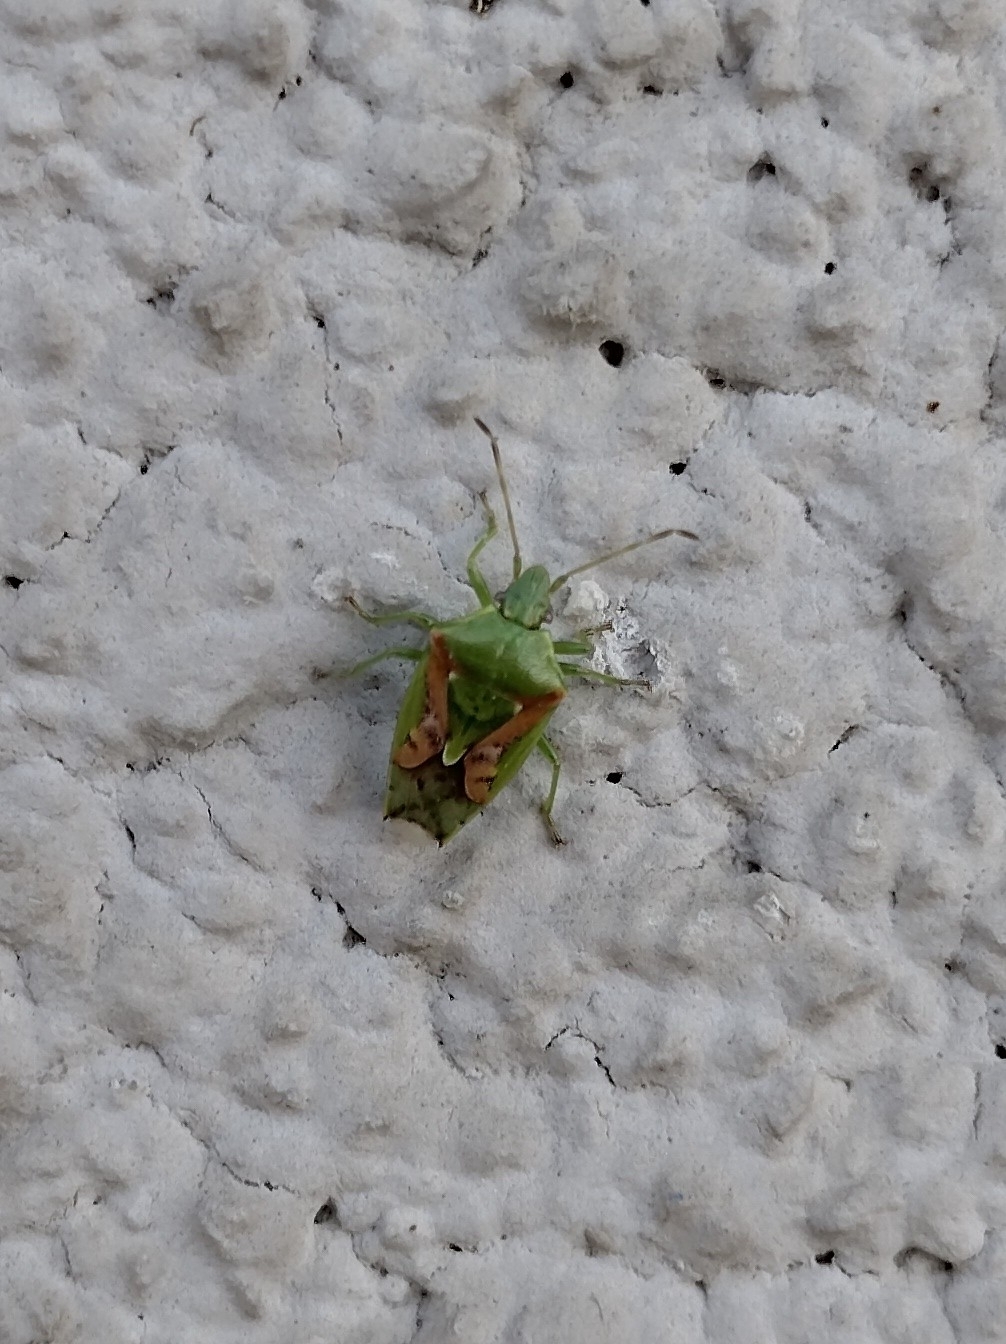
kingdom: Animalia
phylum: Arthropoda
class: Insecta
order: Hemiptera
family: Acanthosomatidae
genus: Cyphostethus
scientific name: Cyphostethus tristriatus
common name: Juniper shieldbug
